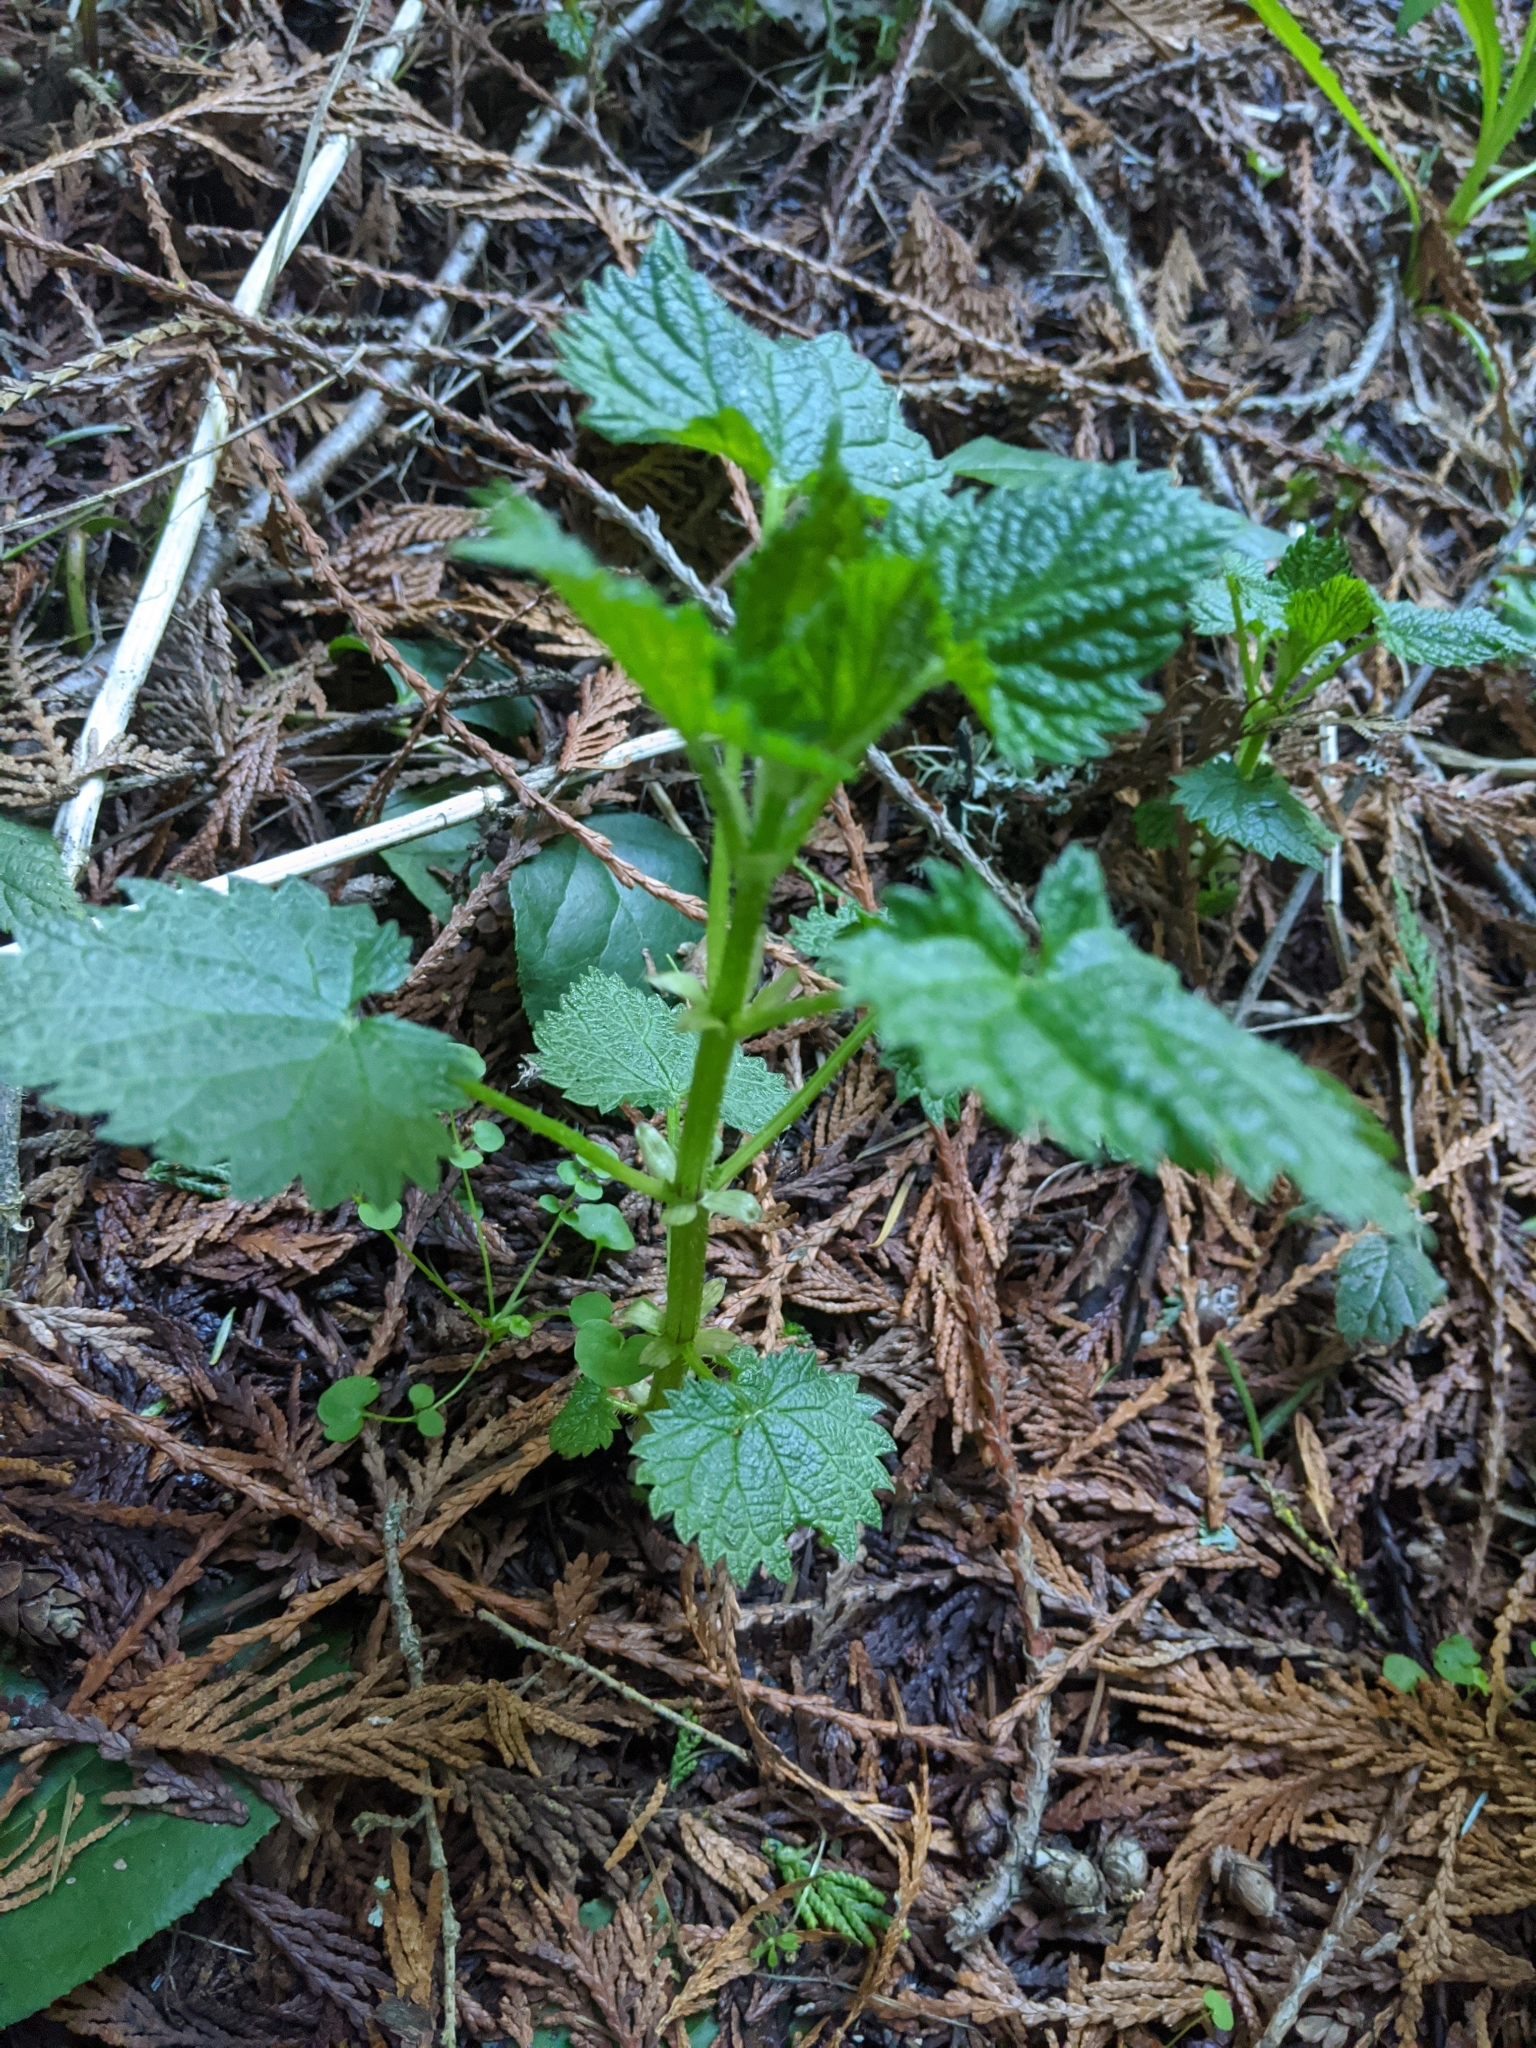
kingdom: Plantae
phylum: Tracheophyta
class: Magnoliopsida
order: Rosales
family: Urticaceae
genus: Urtica
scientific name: Urtica gracilis
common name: Slender stinging nettle
